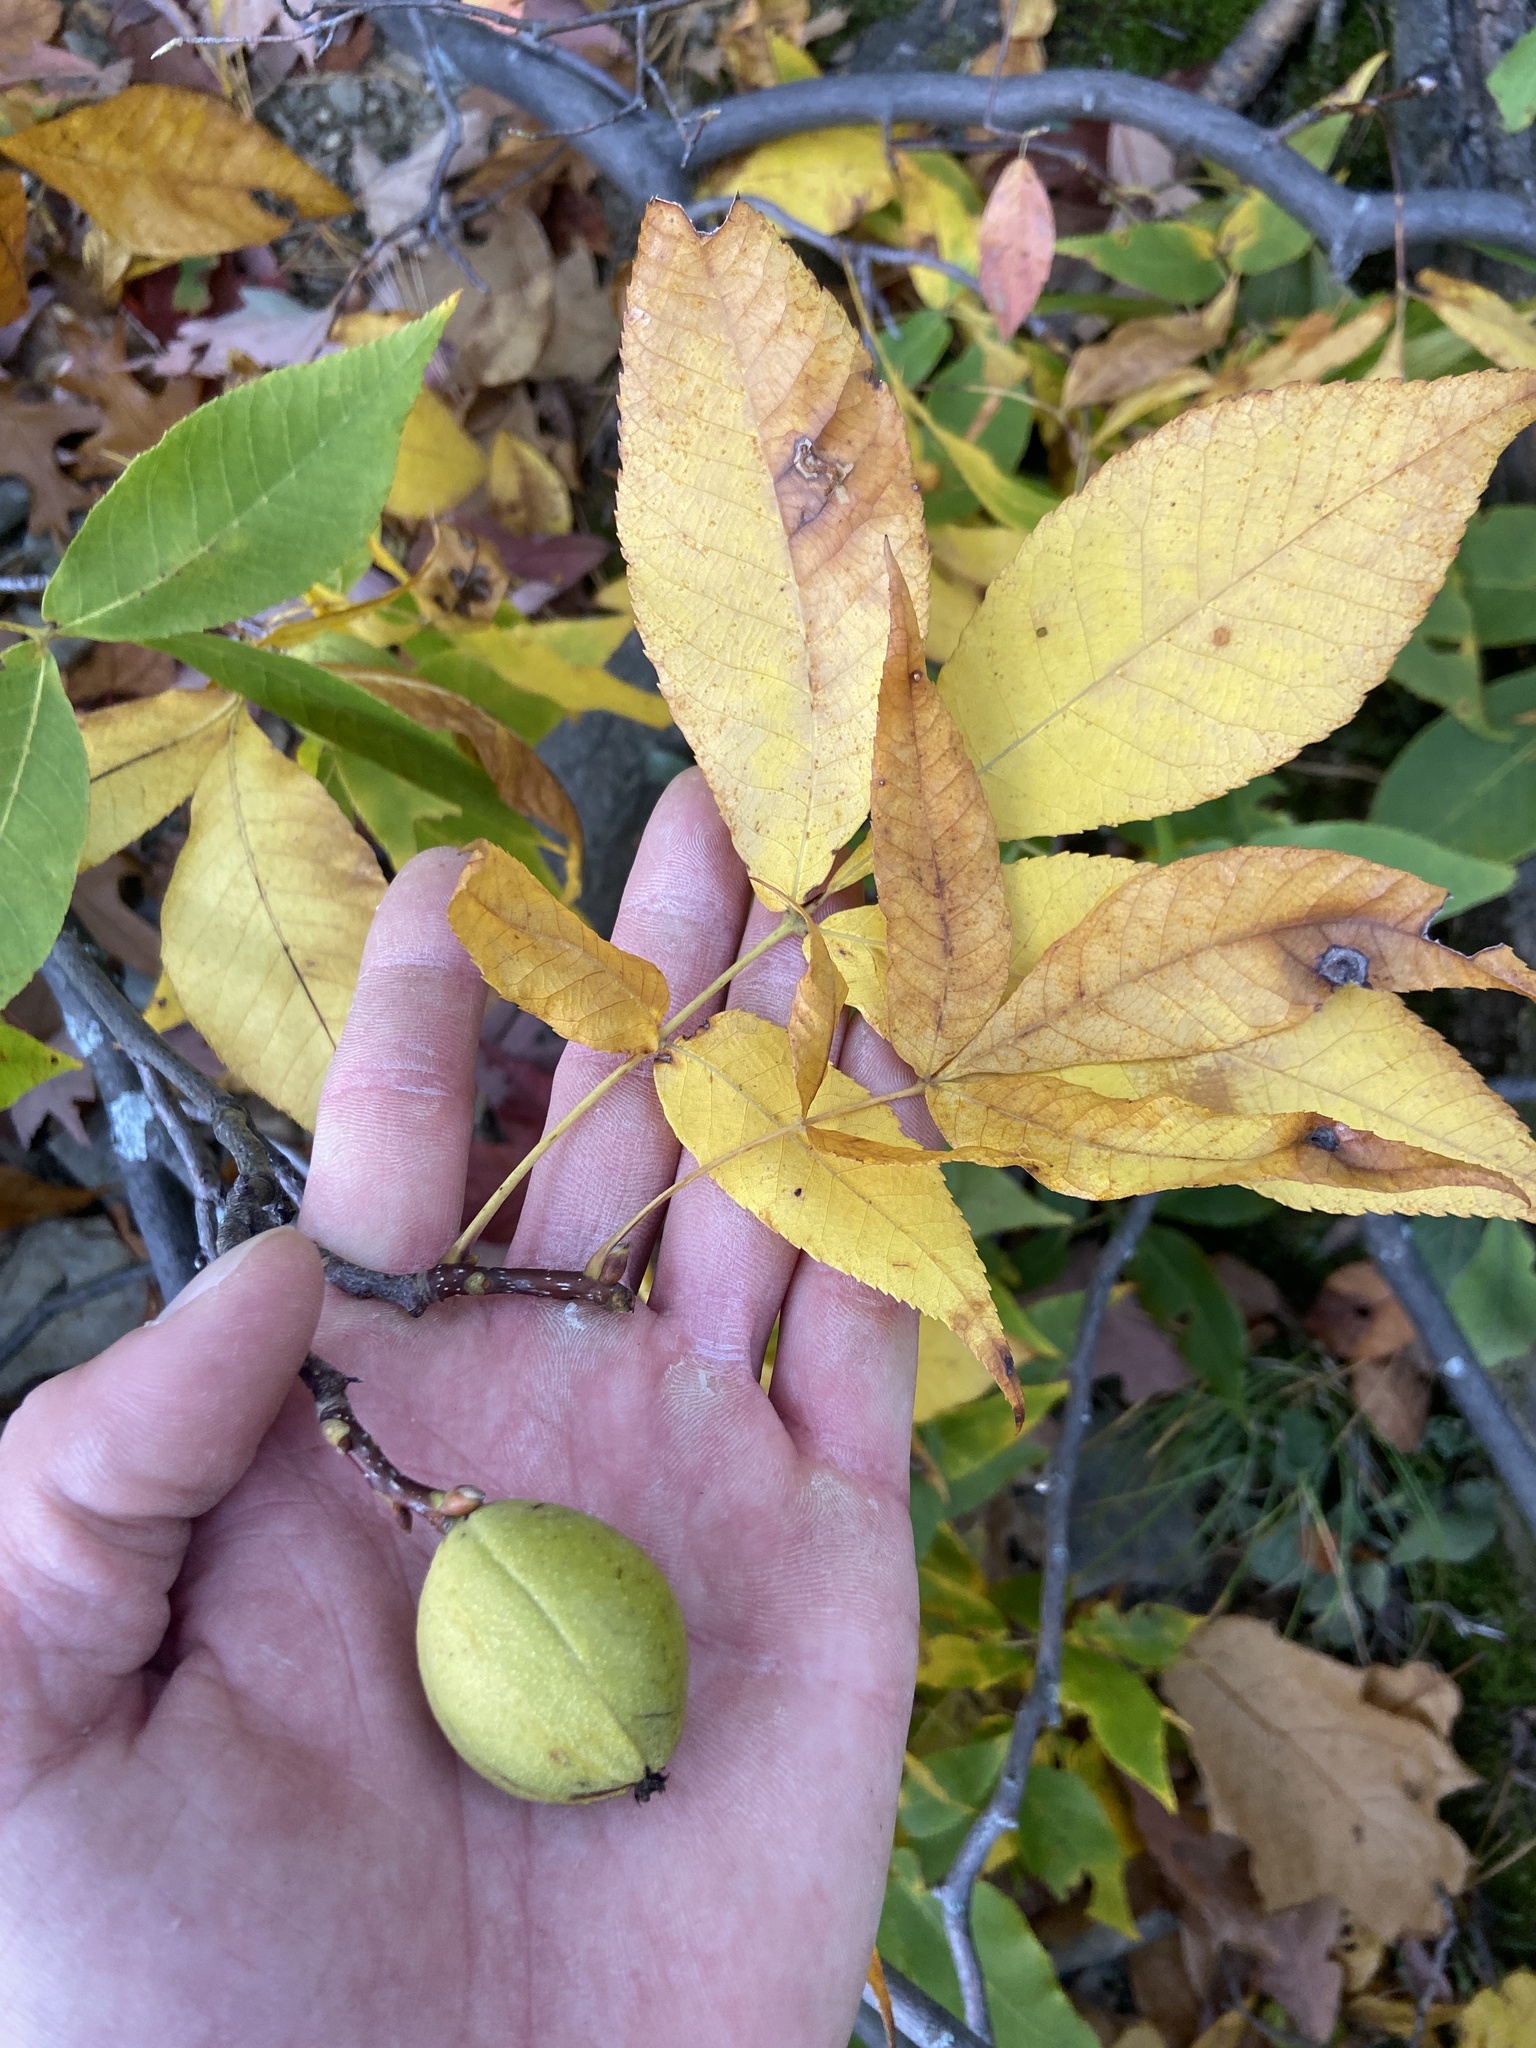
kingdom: Plantae
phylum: Tracheophyta
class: Magnoliopsida
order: Fagales
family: Juglandaceae
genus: Carya
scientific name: Carya glabra
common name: Pignut hickory
